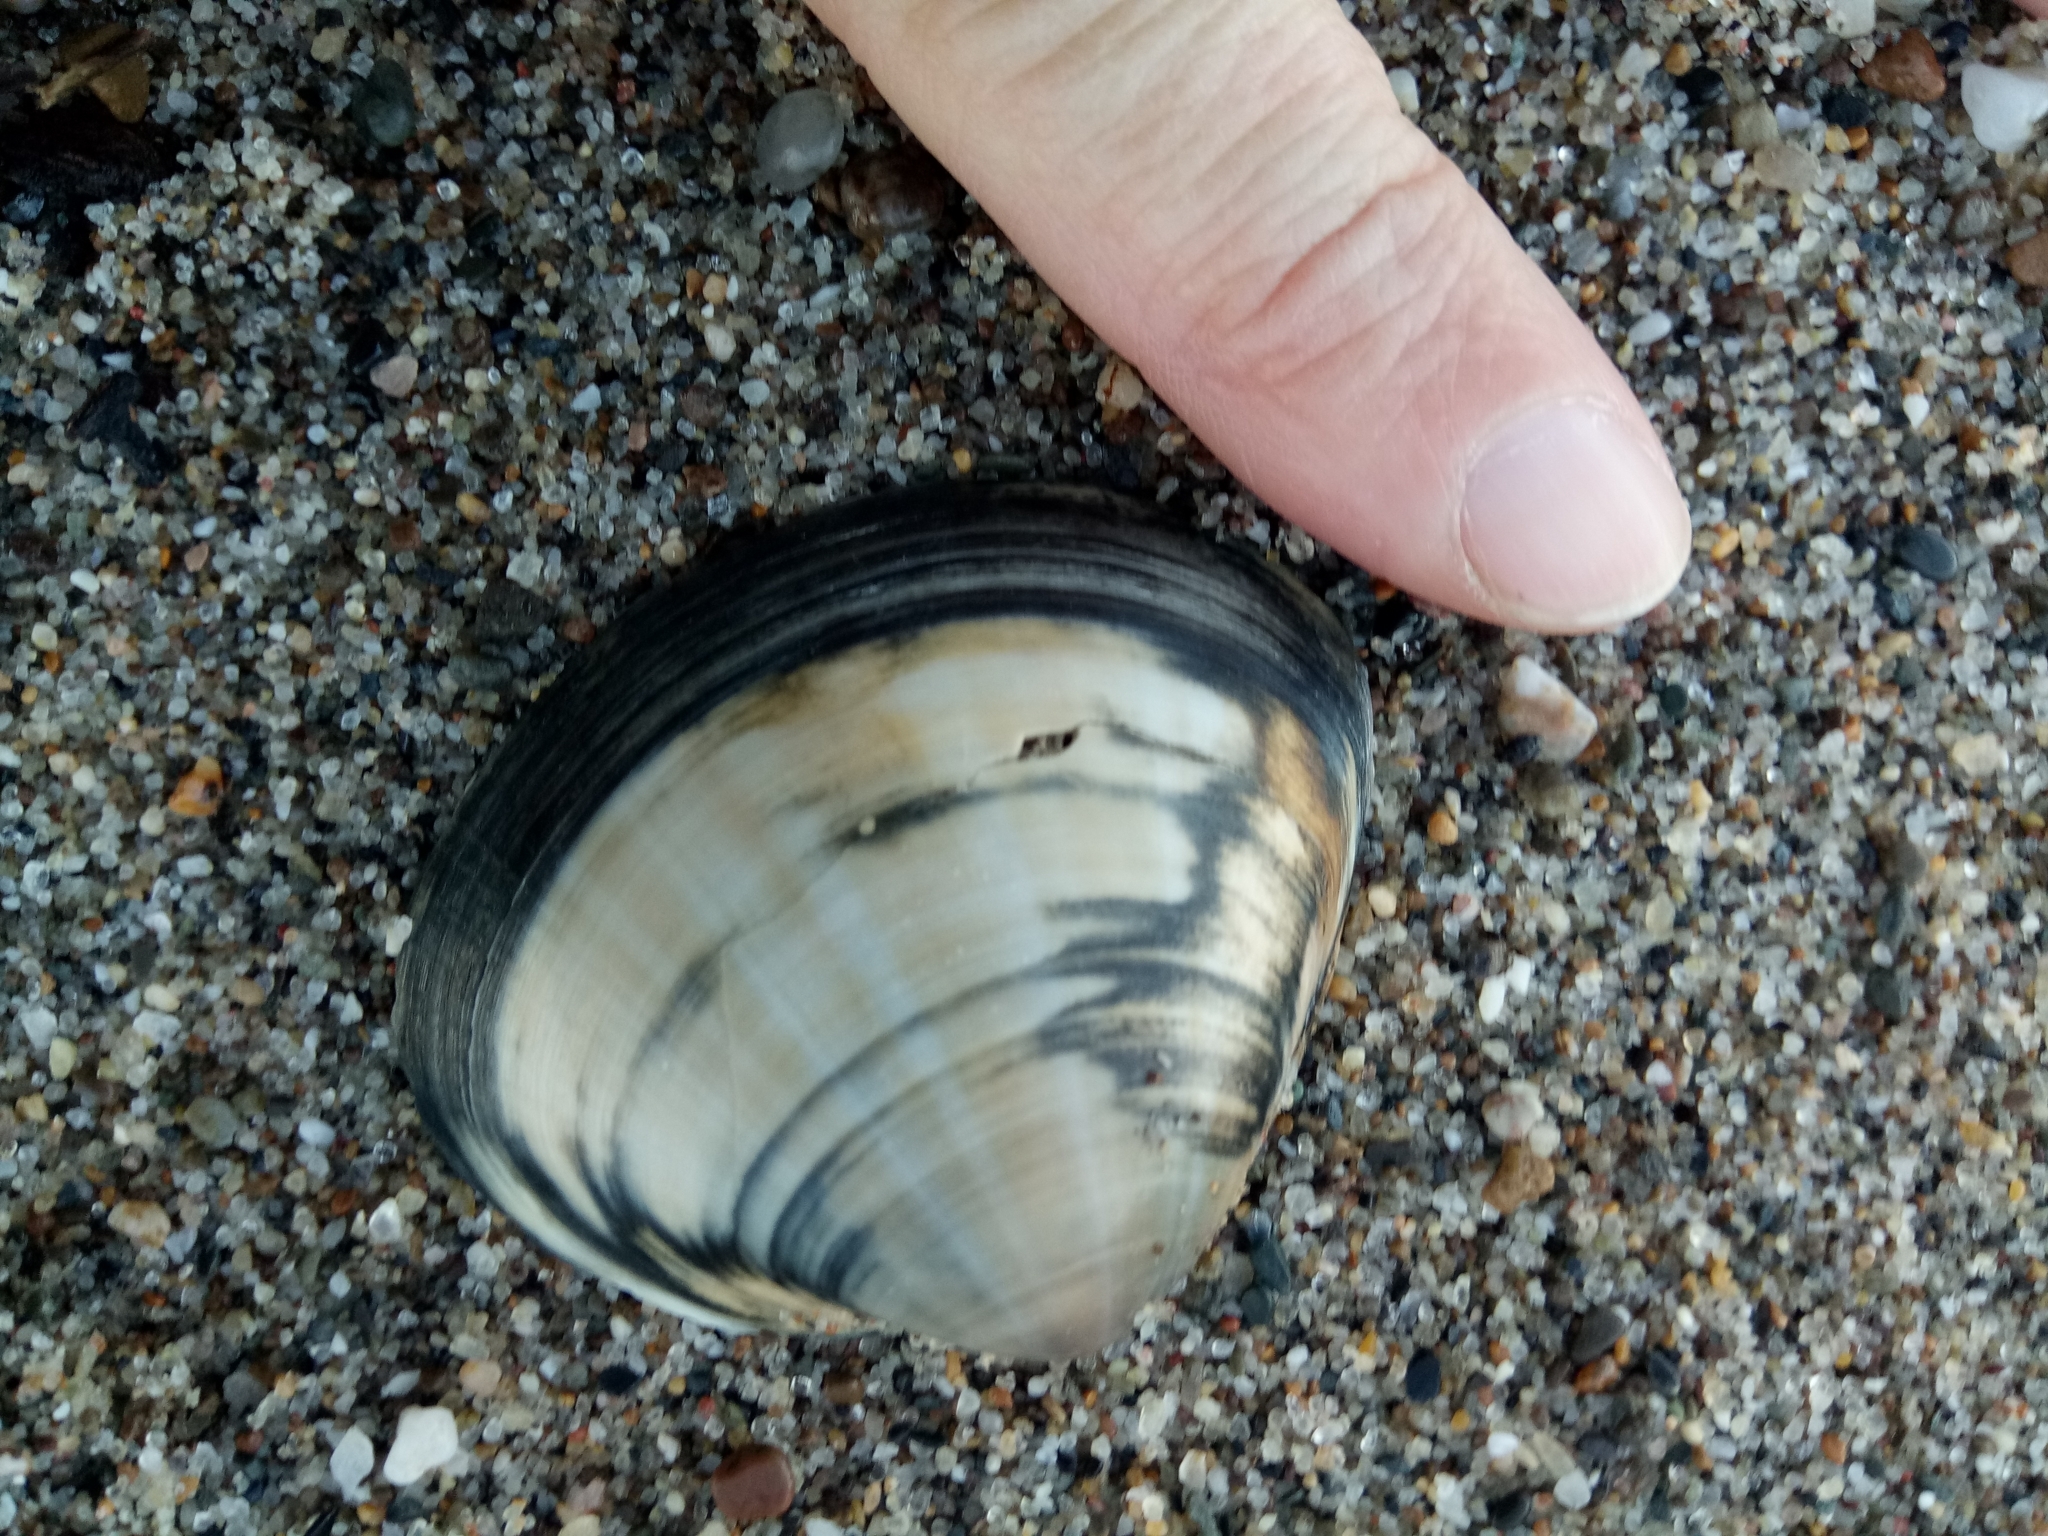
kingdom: Animalia
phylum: Mollusca
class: Bivalvia
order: Venerida
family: Mactridae
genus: Mactra
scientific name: Mactra stultorum
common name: Rayed trough shell
